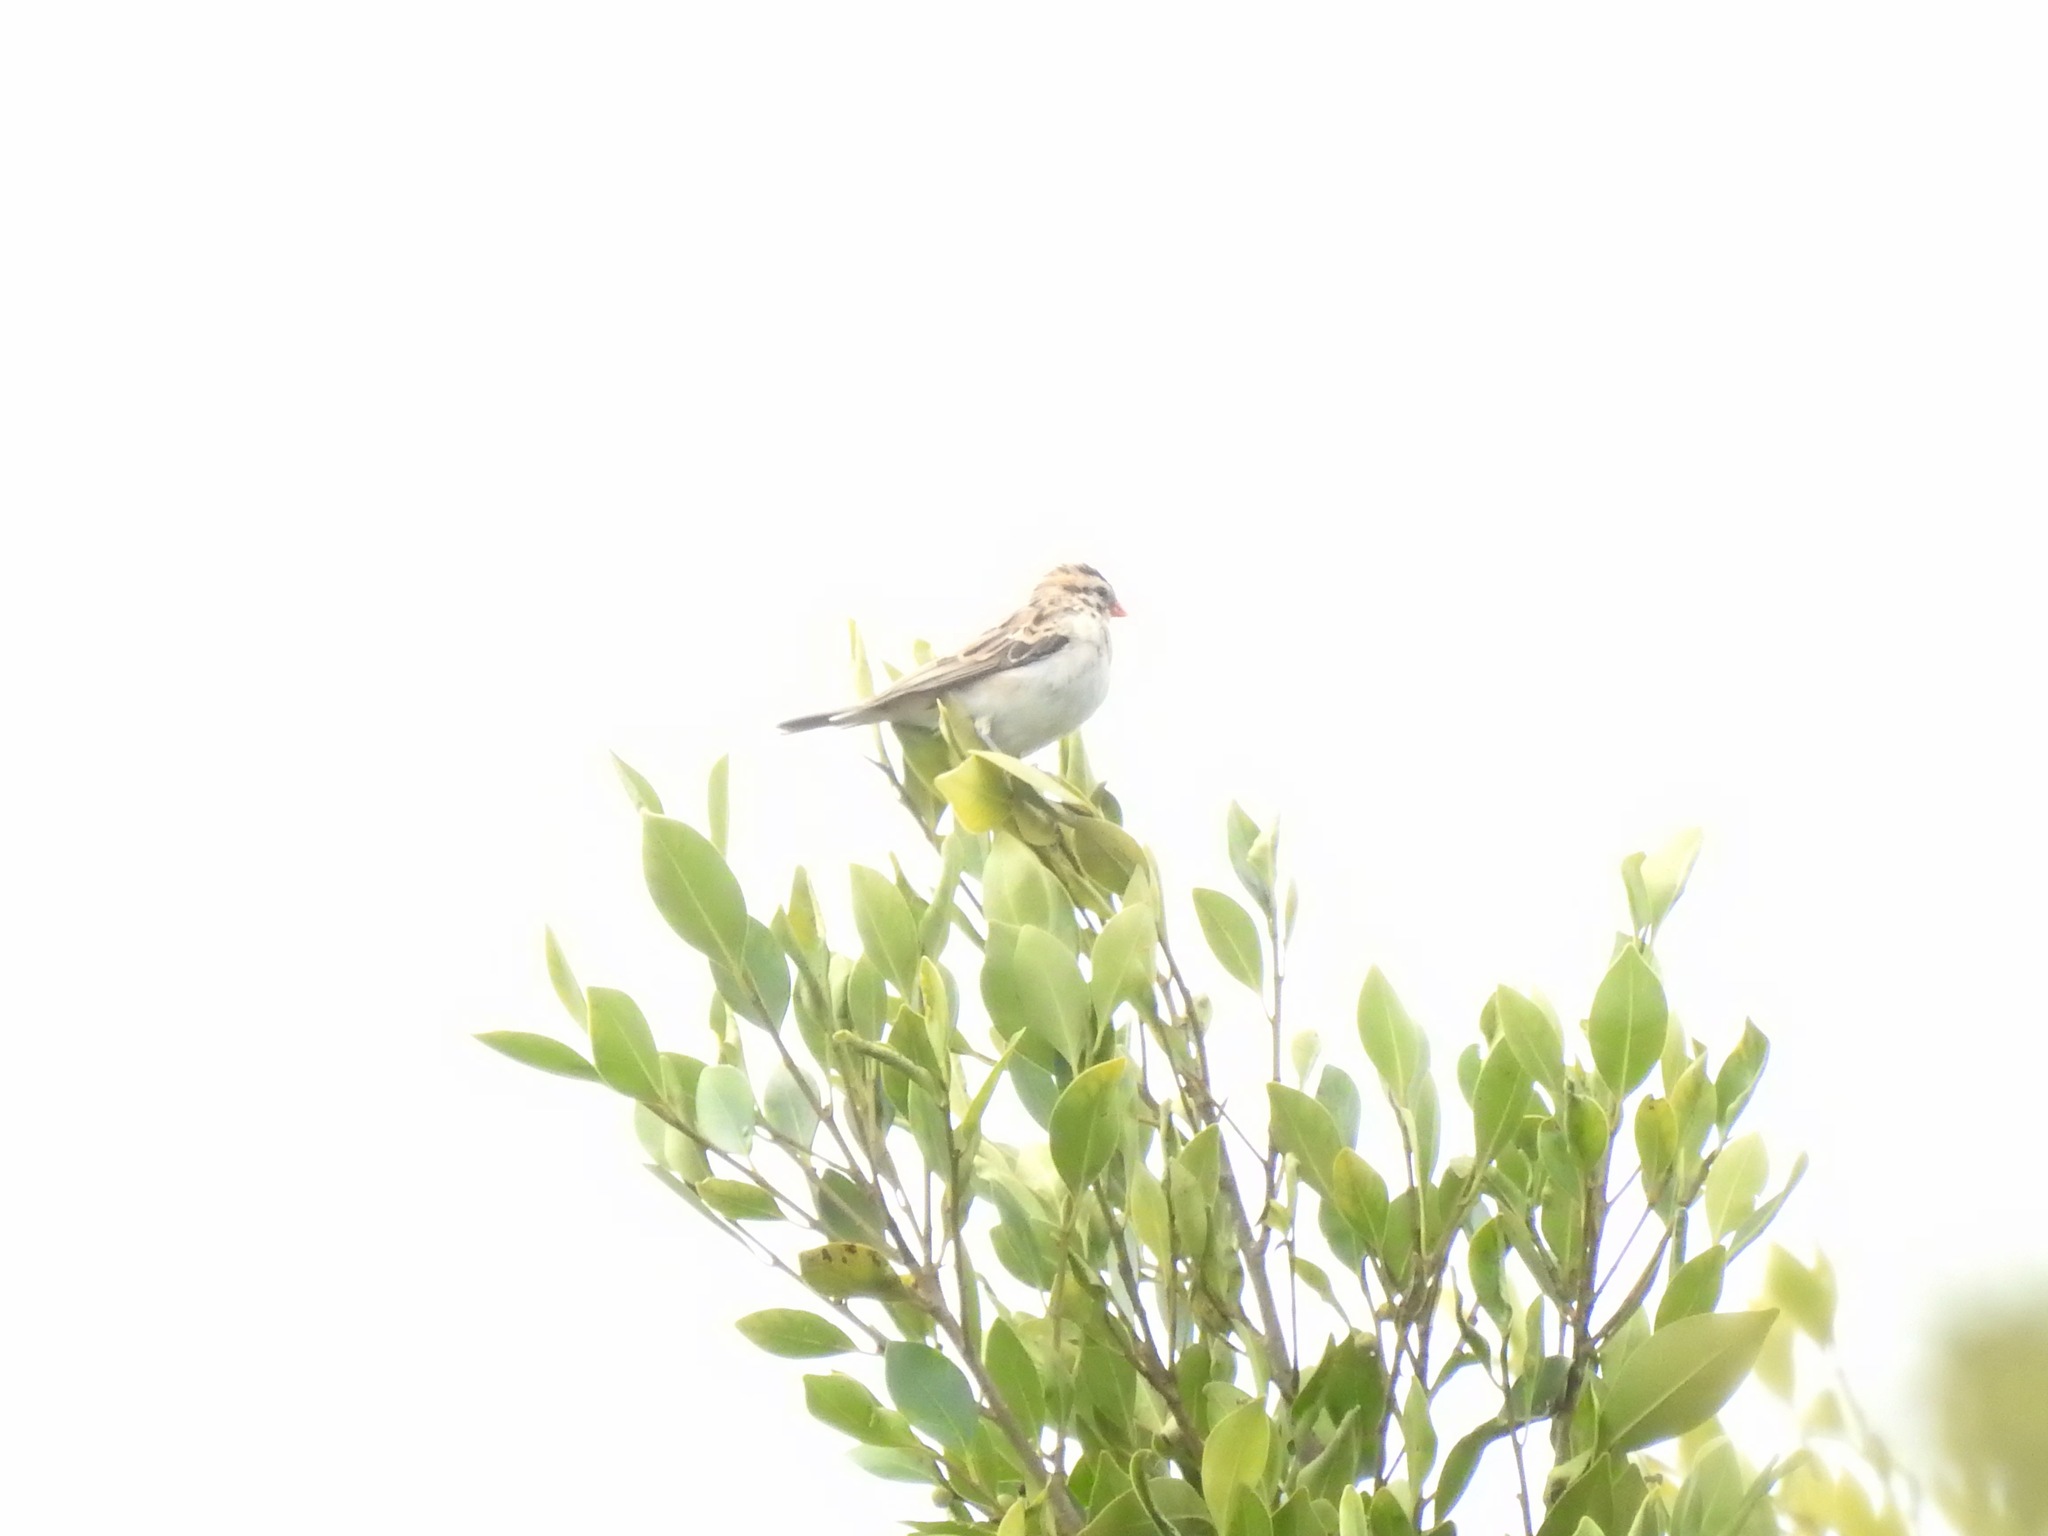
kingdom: Animalia
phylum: Chordata
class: Aves
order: Passeriformes
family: Viduidae
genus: Vidua
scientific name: Vidua macroura
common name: Pin-tailed whydah
